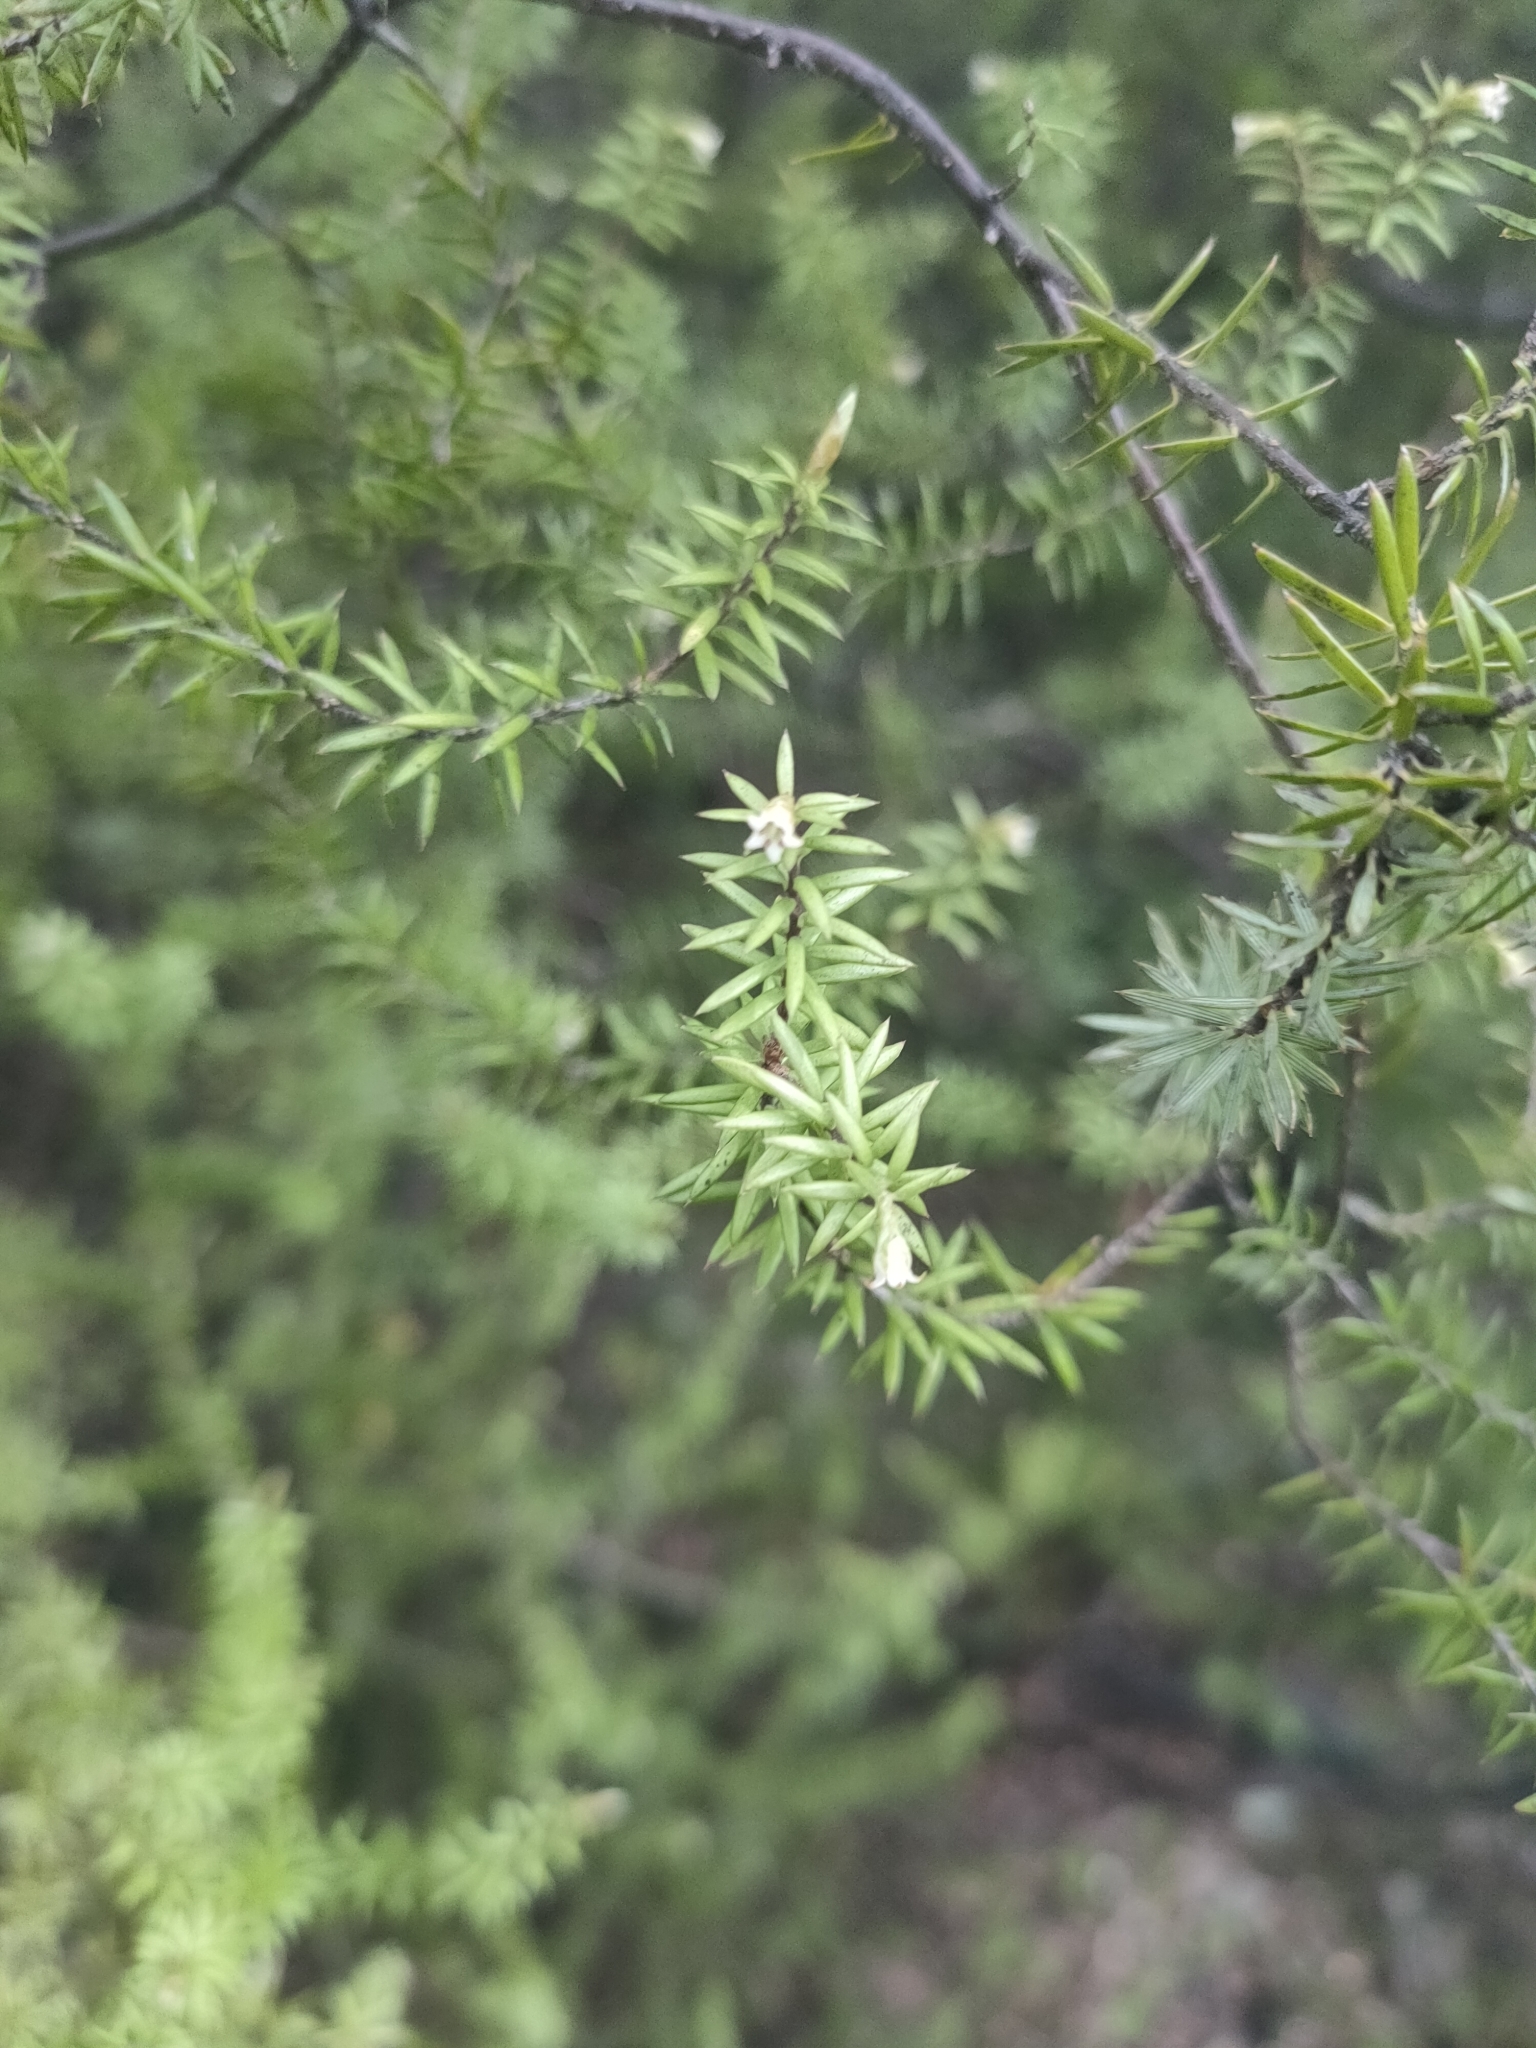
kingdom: Plantae
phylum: Tracheophyta
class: Magnoliopsida
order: Ericales
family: Ericaceae
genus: Leptecophylla
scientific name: Leptecophylla juniperina
